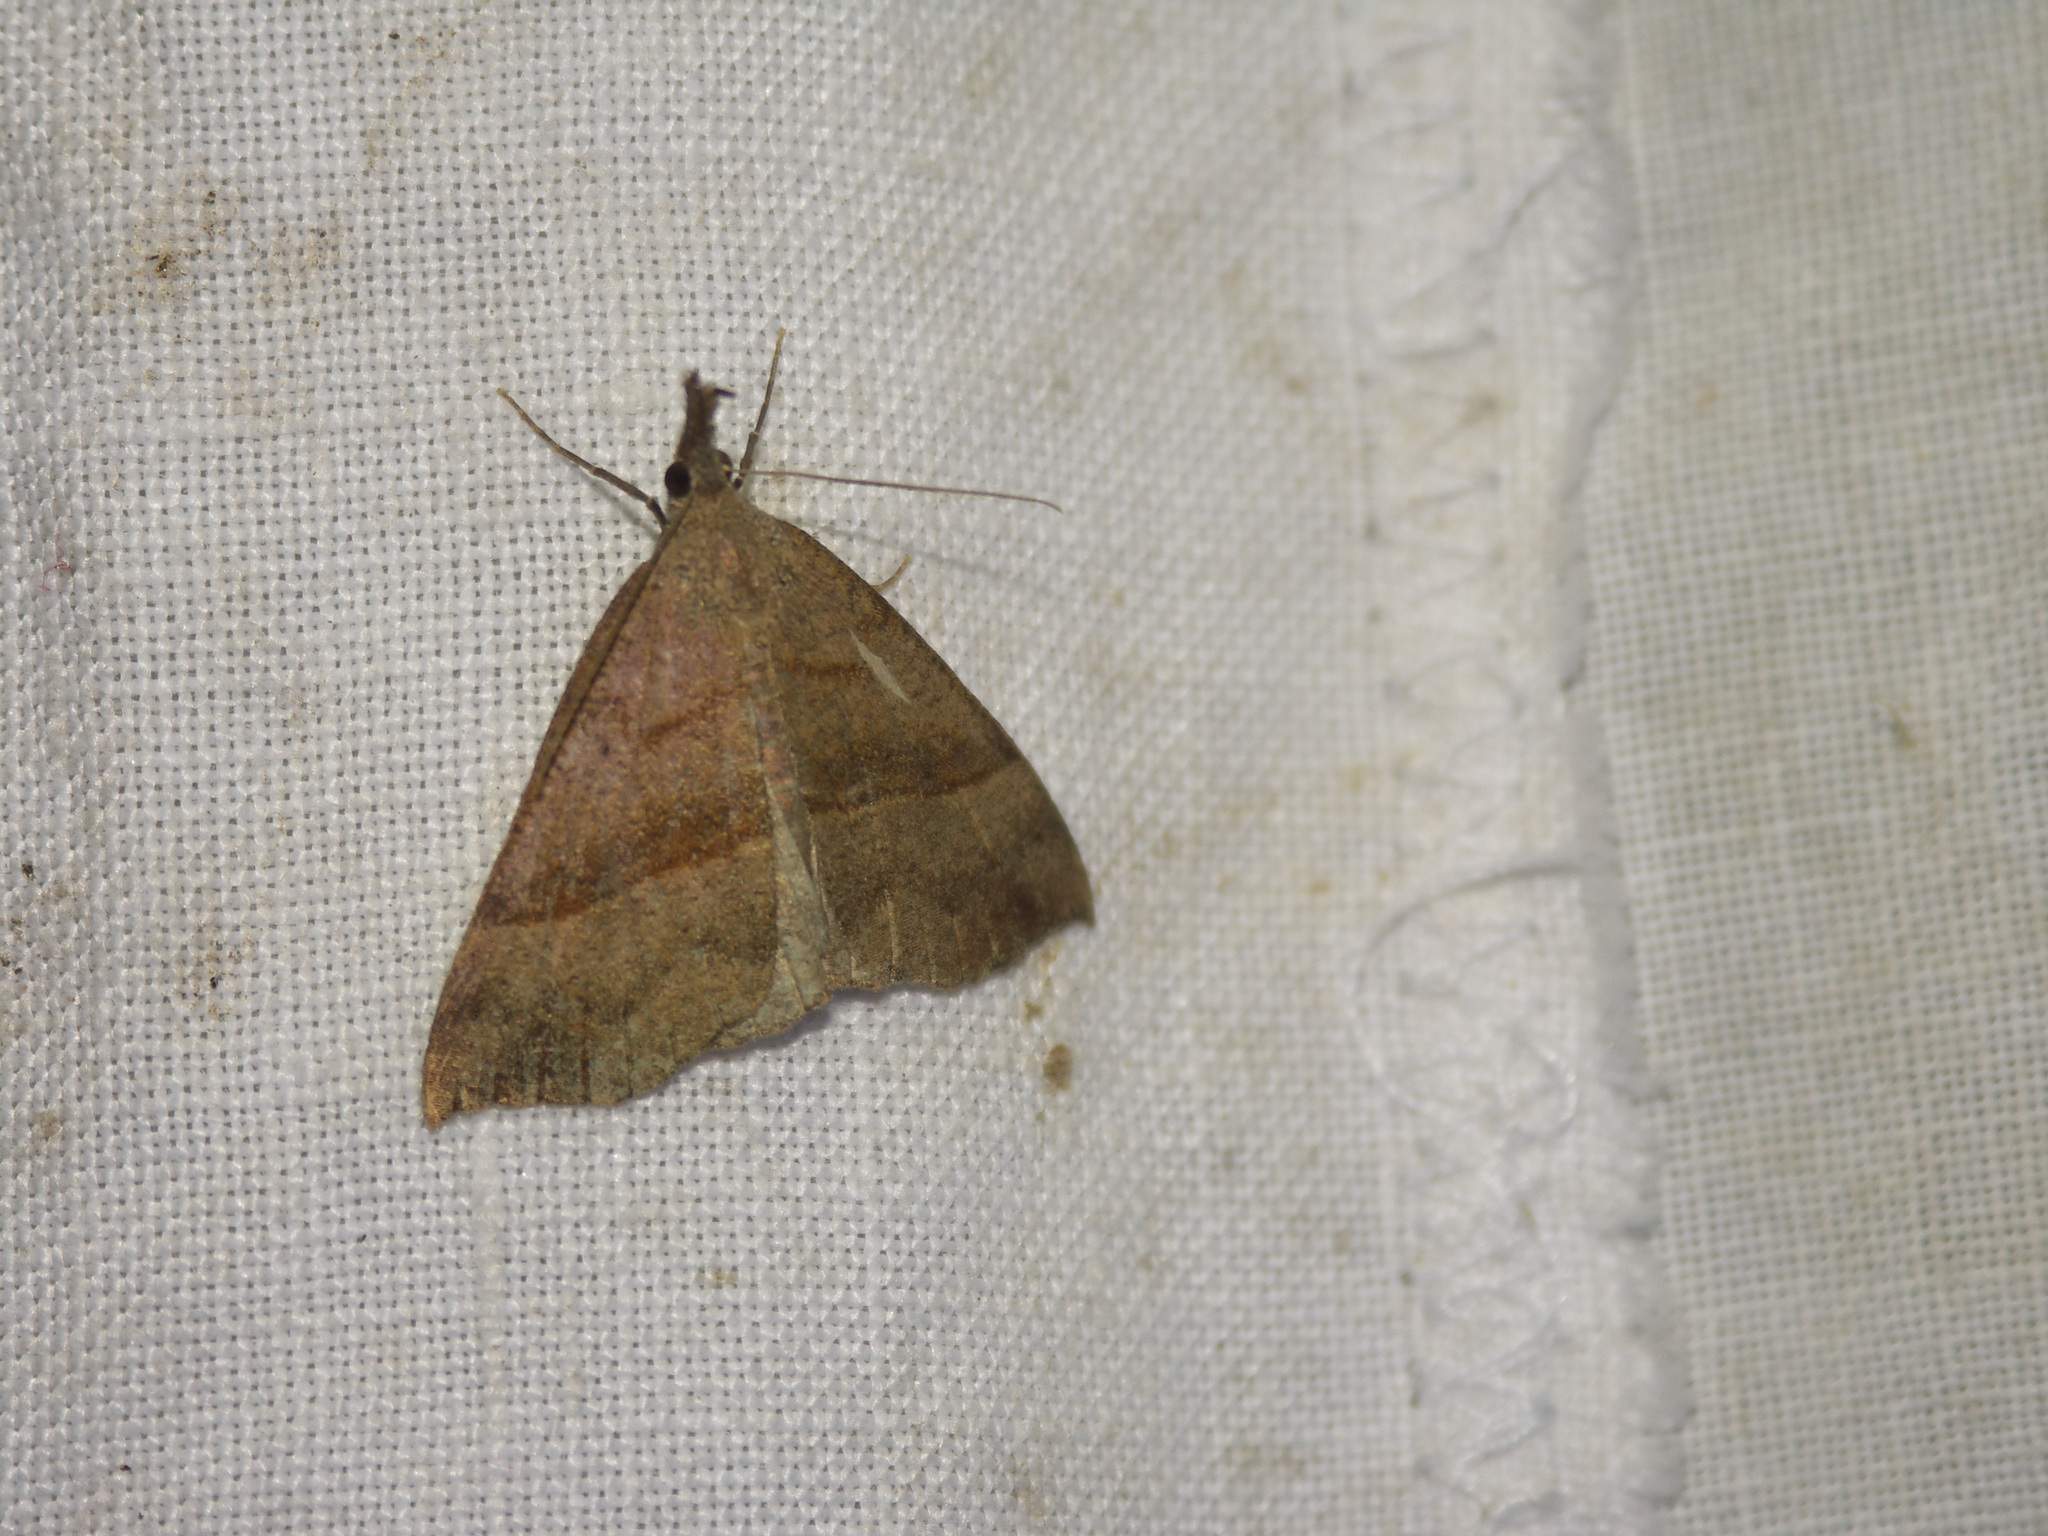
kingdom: Animalia
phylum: Arthropoda
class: Insecta
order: Lepidoptera
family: Erebidae
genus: Hypena
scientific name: Hypena proboscidalis
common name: Snout
